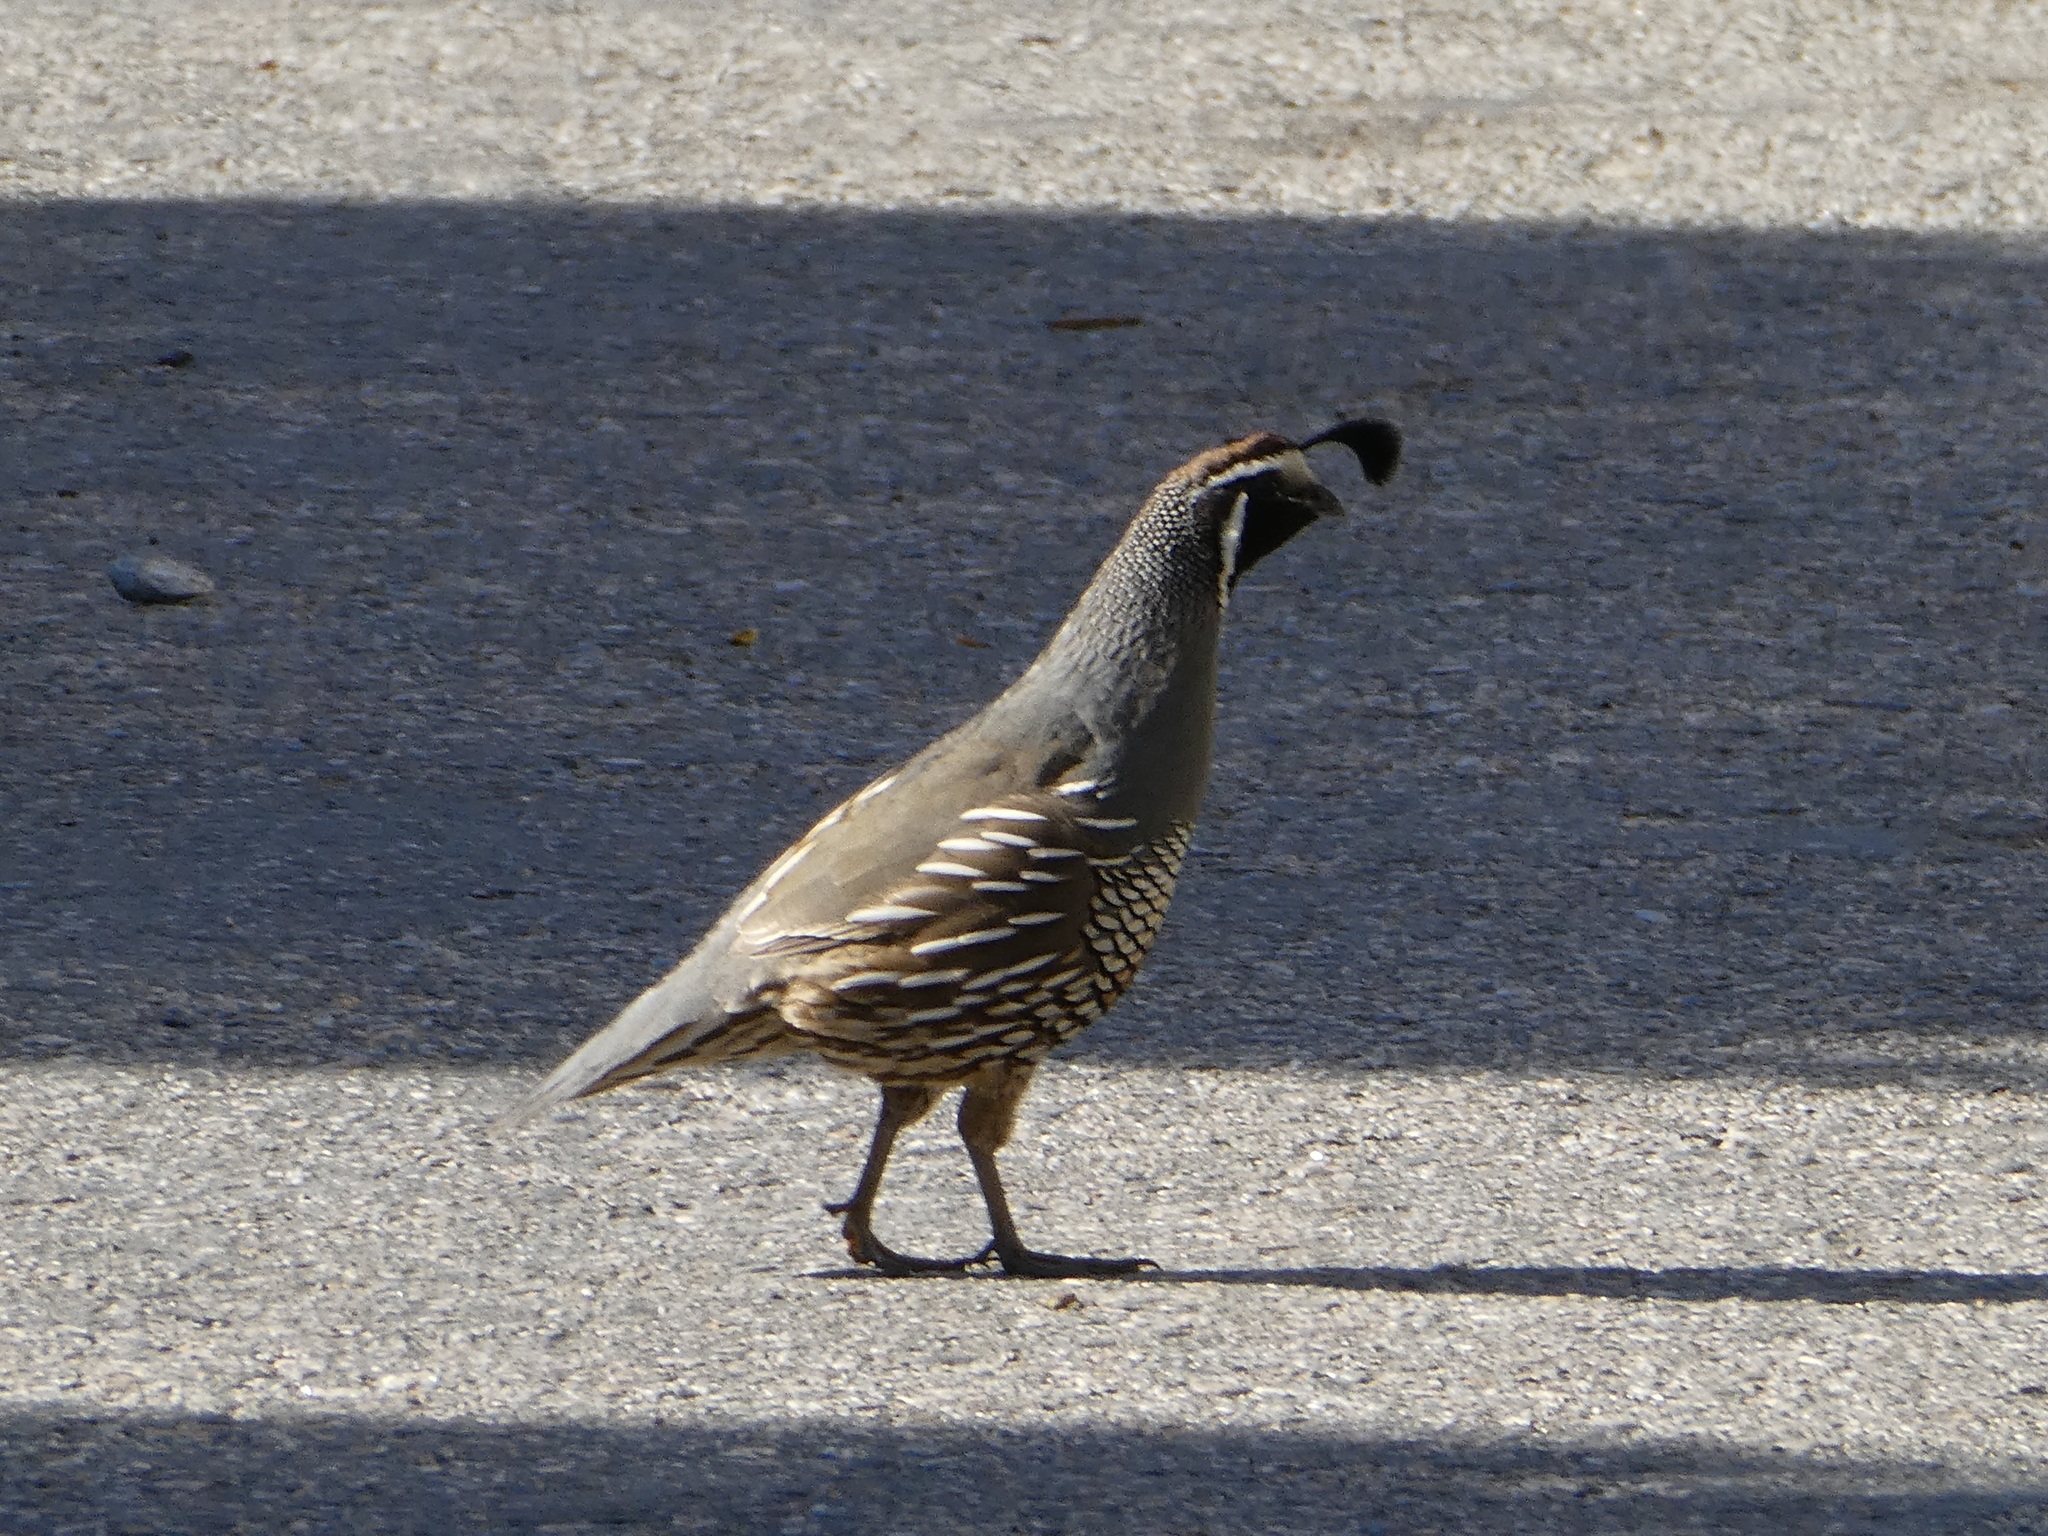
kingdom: Animalia
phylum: Chordata
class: Aves
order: Galliformes
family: Odontophoridae
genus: Callipepla
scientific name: Callipepla californica
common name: California quail
